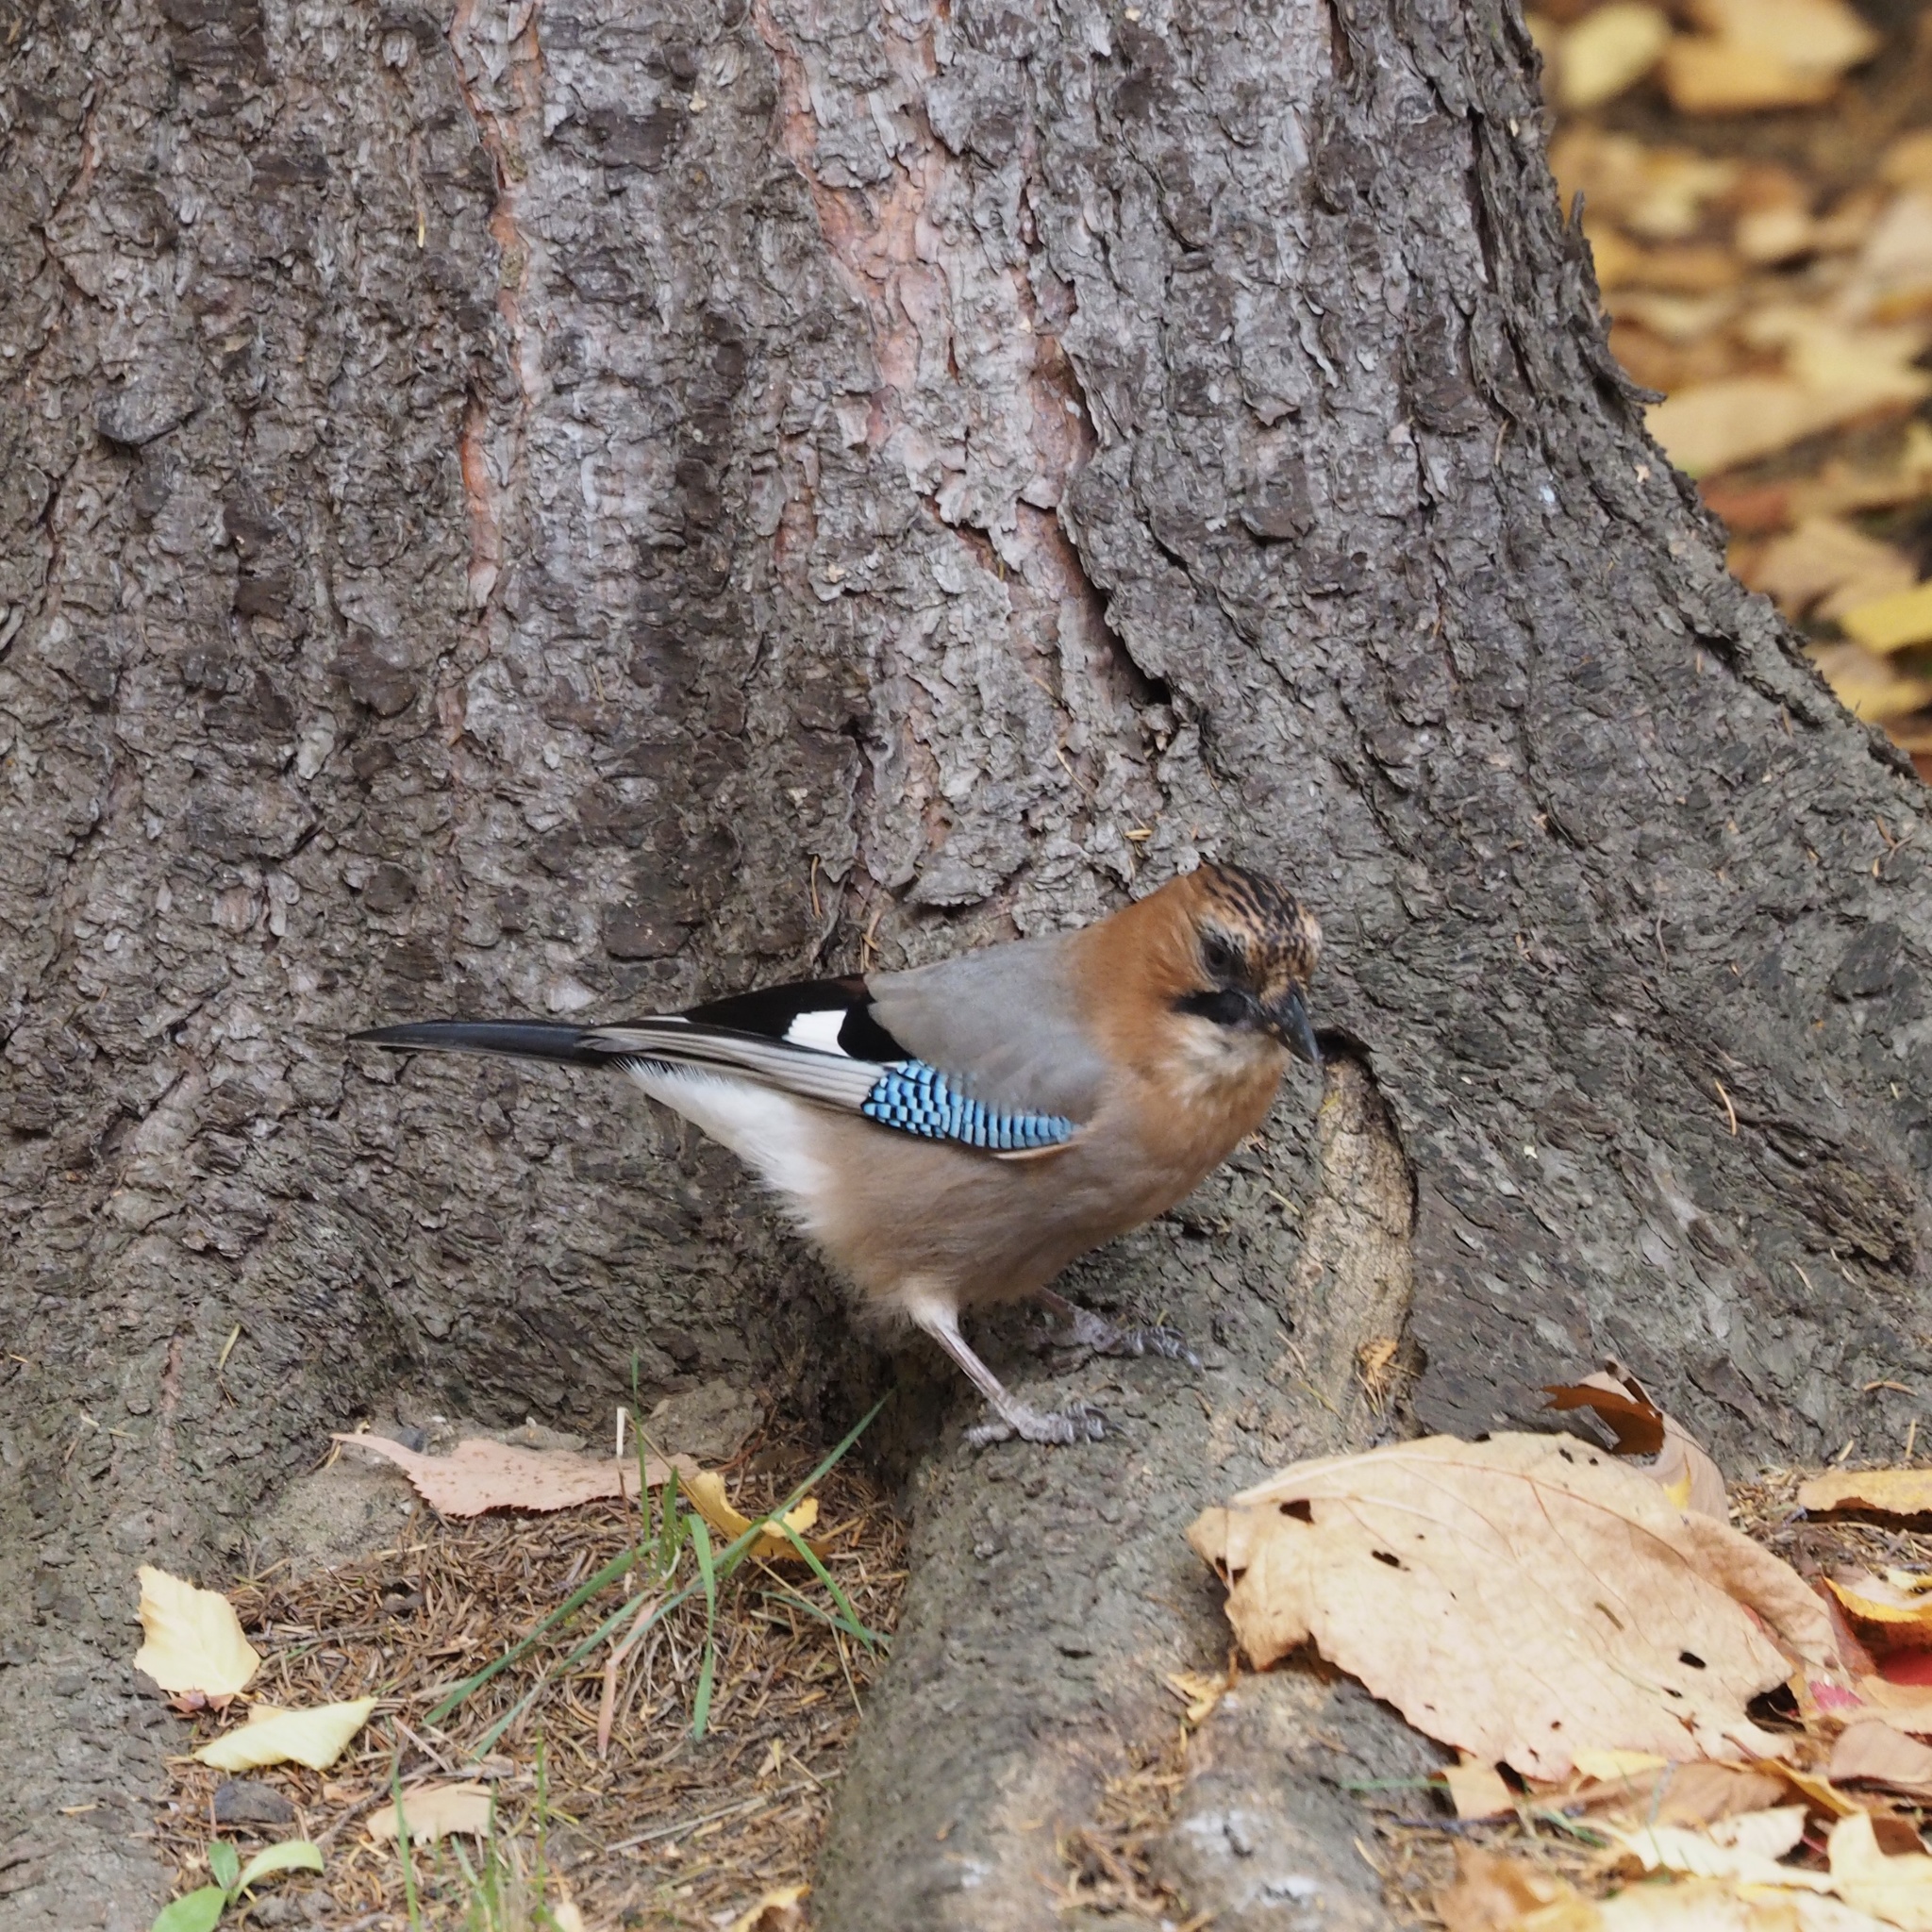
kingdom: Animalia
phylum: Chordata
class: Aves
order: Passeriformes
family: Corvidae
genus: Garrulus
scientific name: Garrulus glandarius
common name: Eurasian jay
